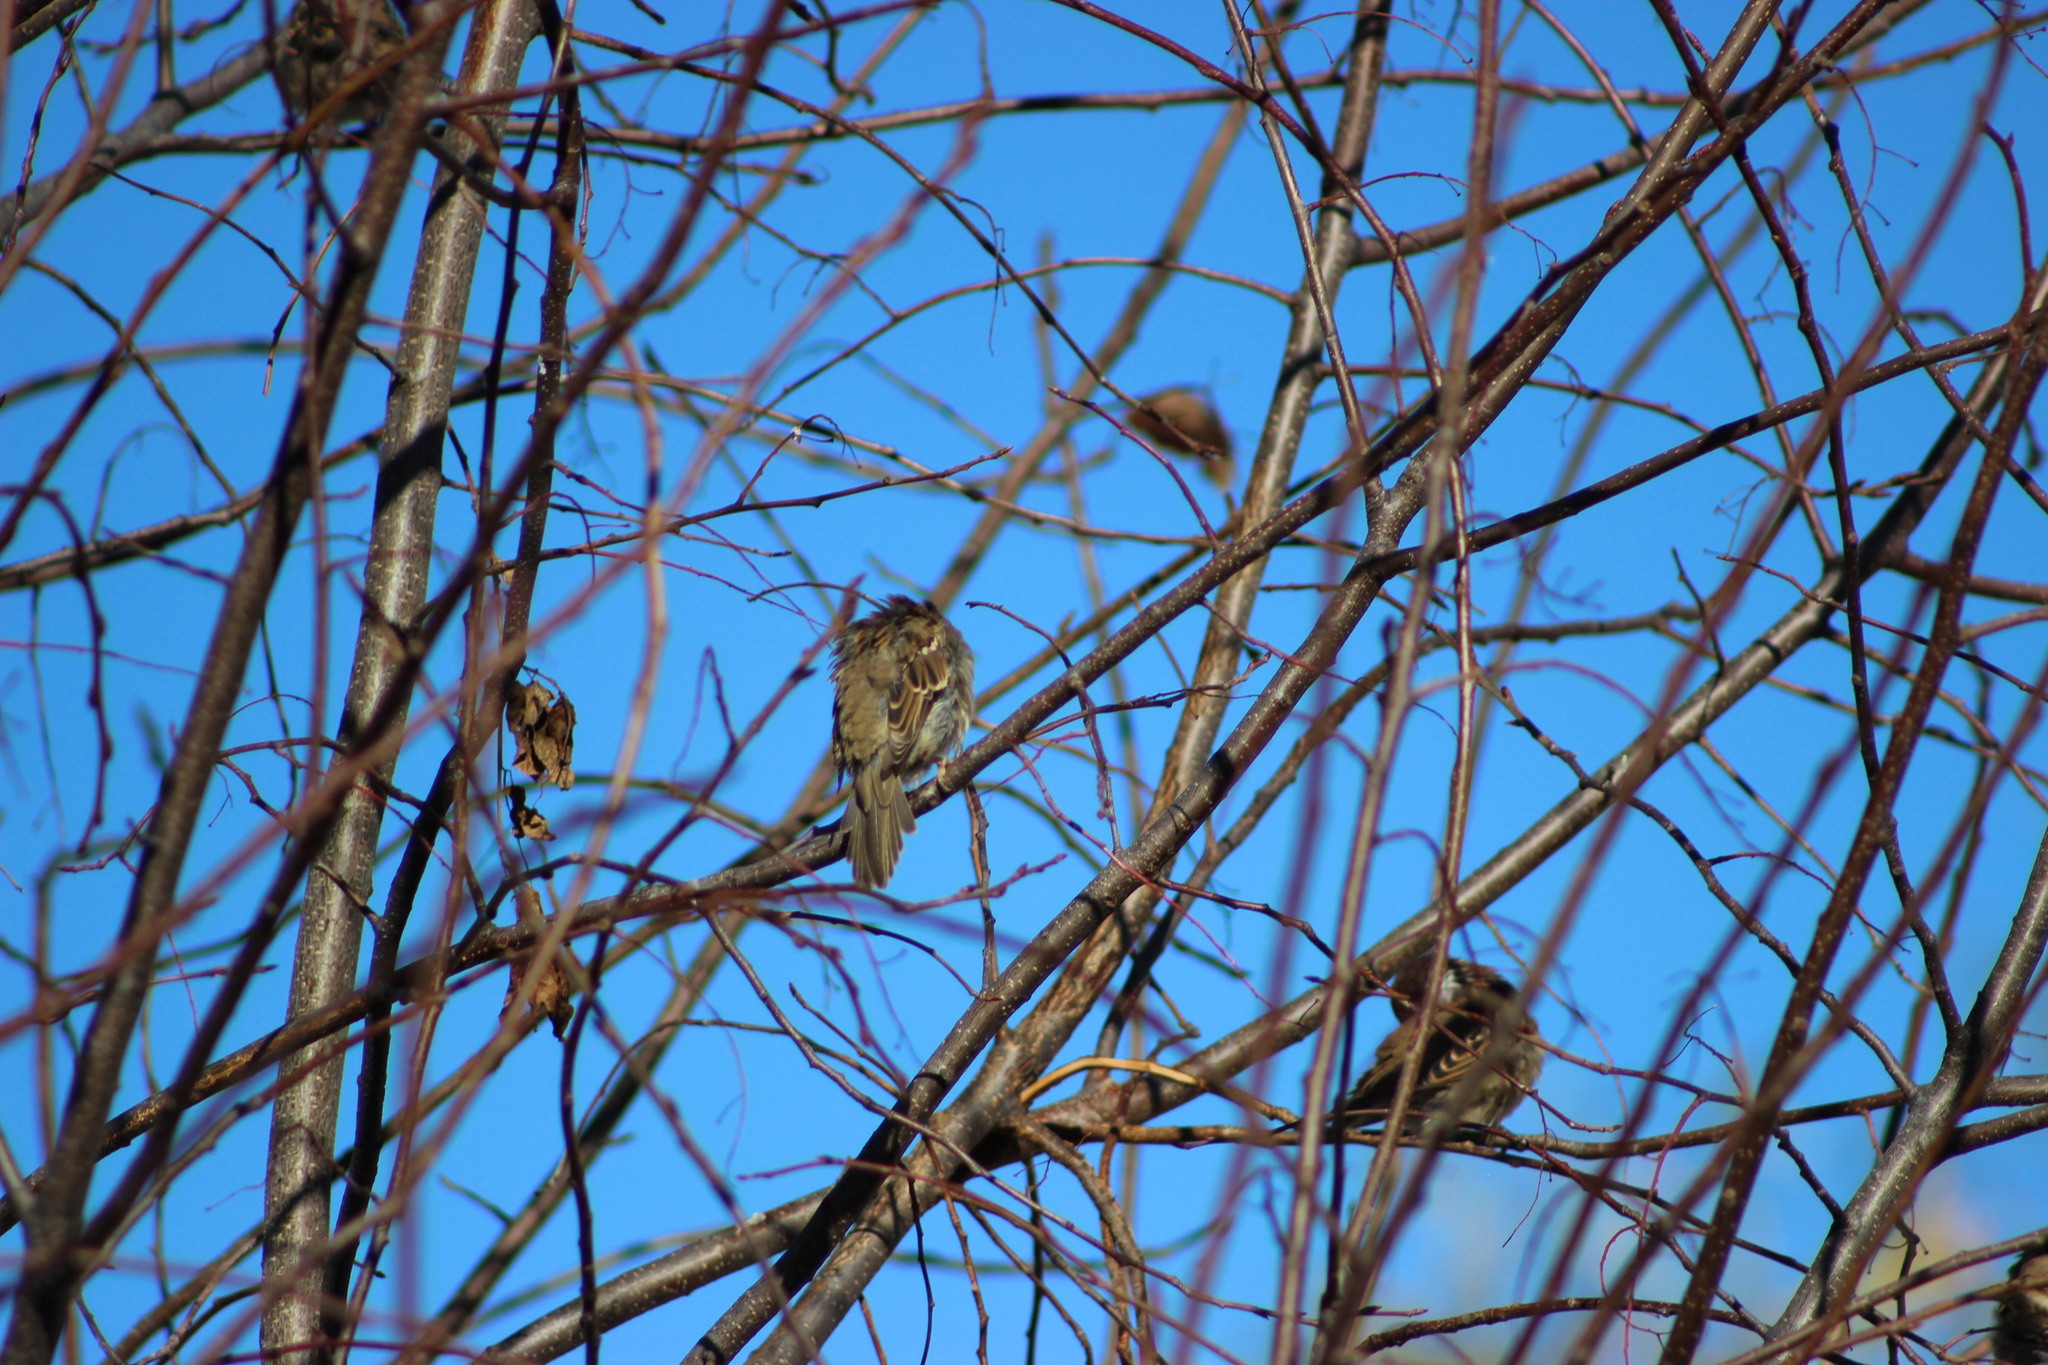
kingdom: Animalia
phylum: Chordata
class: Aves
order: Passeriformes
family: Passeridae
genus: Passer
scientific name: Passer montanus
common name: Eurasian tree sparrow
